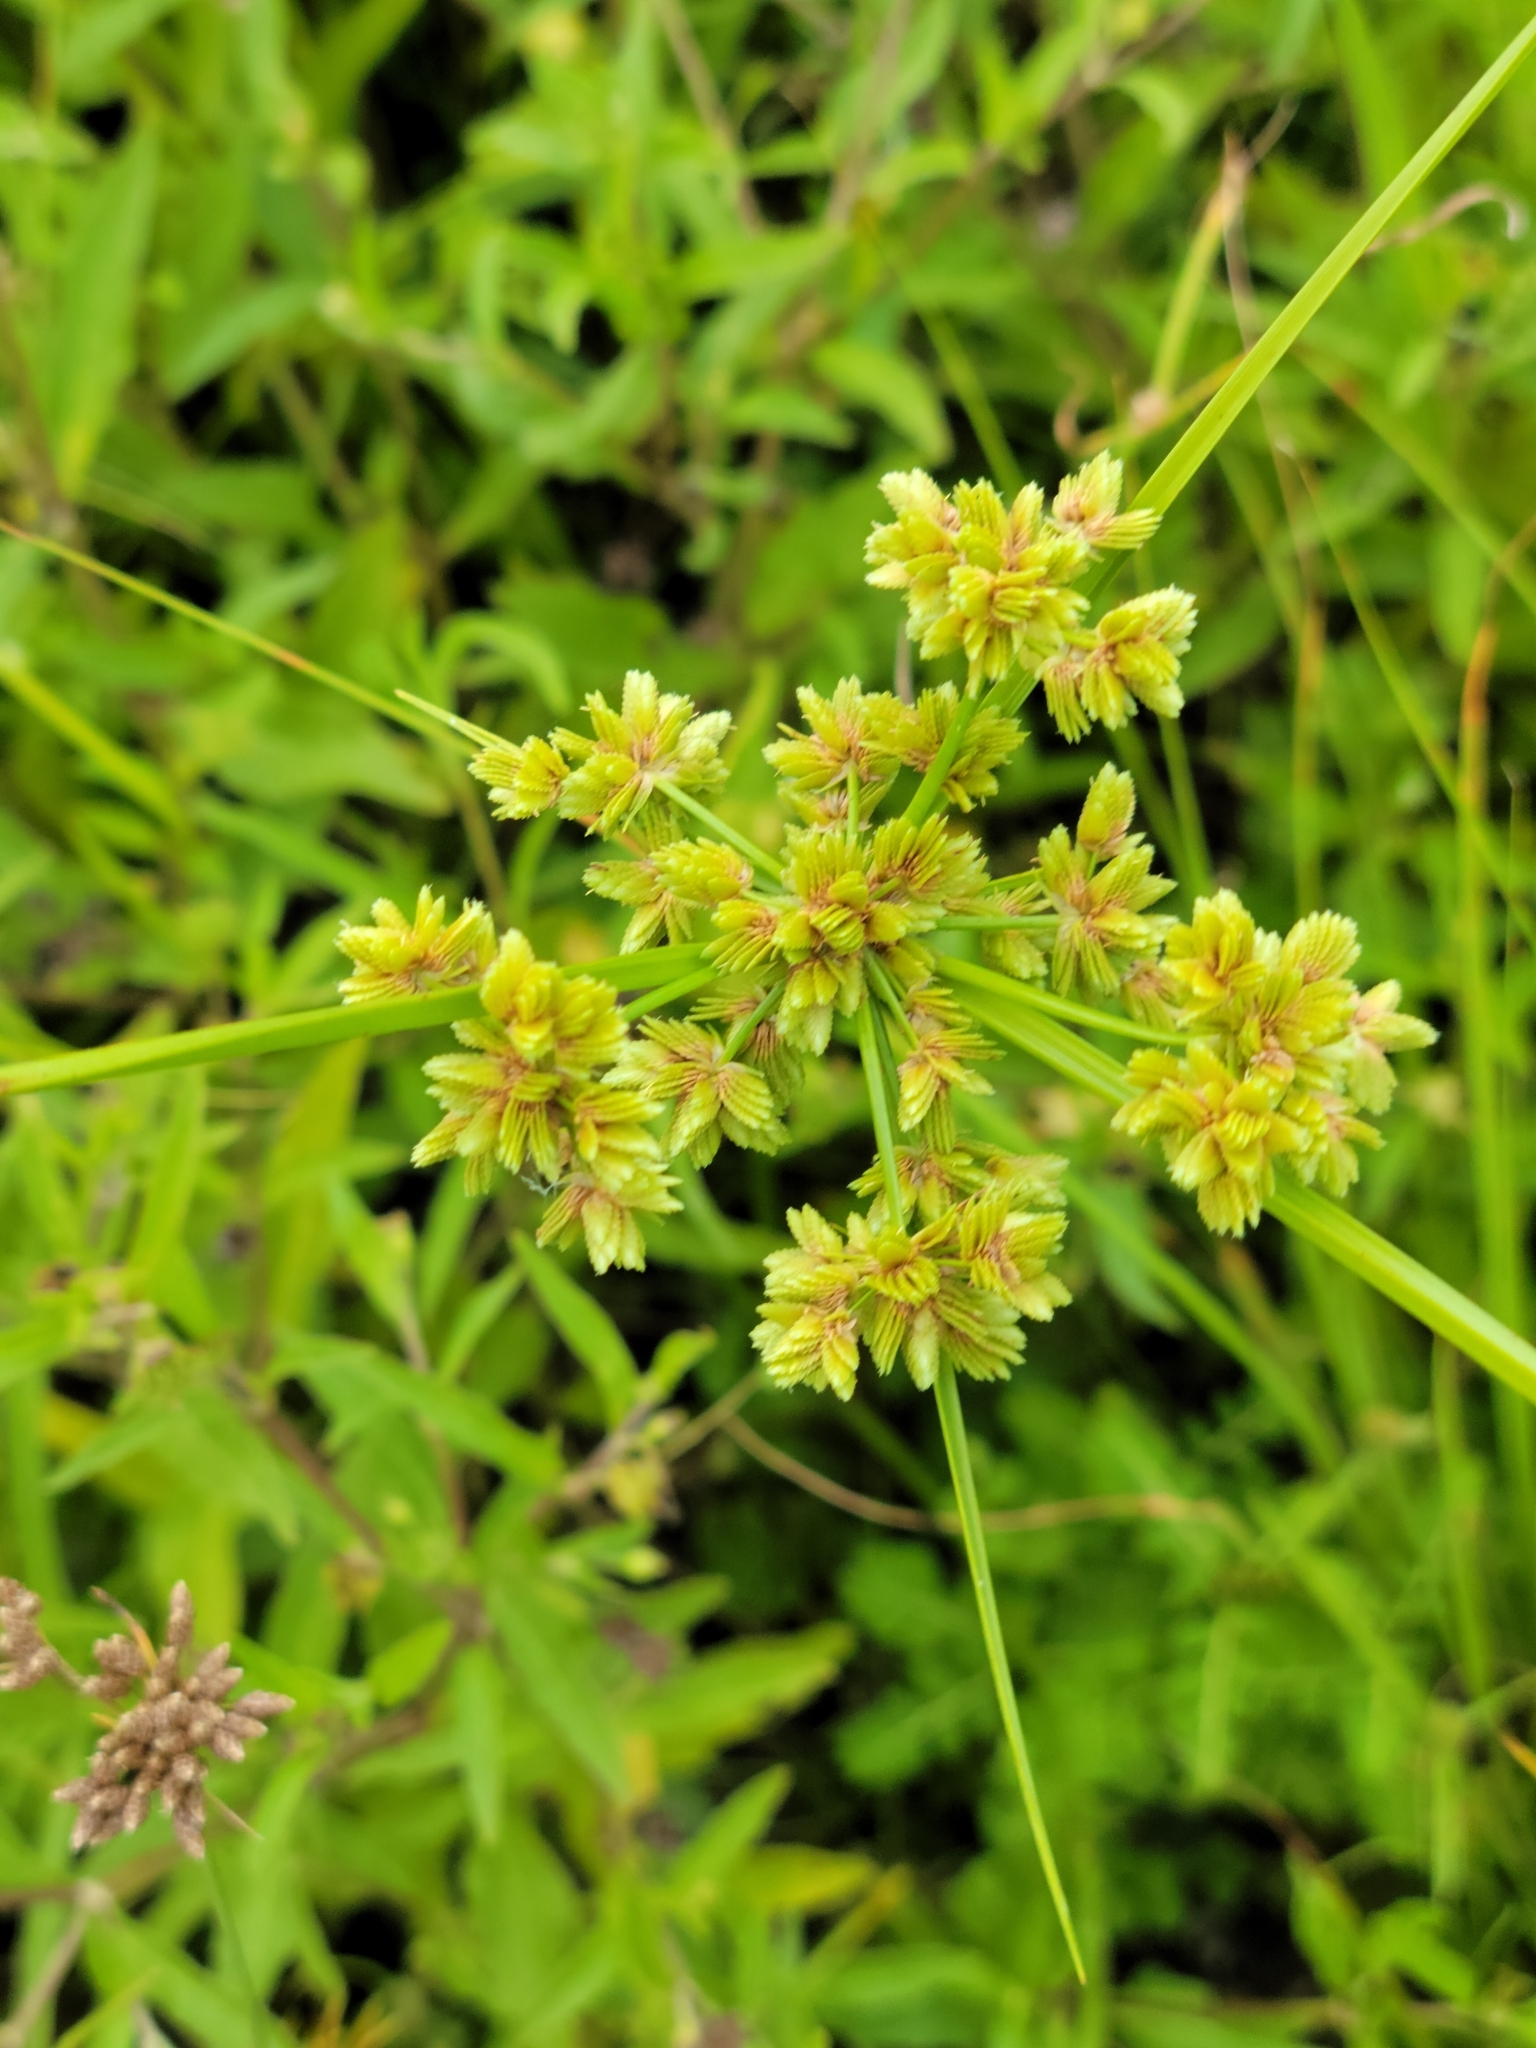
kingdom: Plantae
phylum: Tracheophyta
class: Liliopsida
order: Poales
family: Cyperaceae
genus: Cyperus
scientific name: Cyperus surinamensis
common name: Tropical flat sedge
